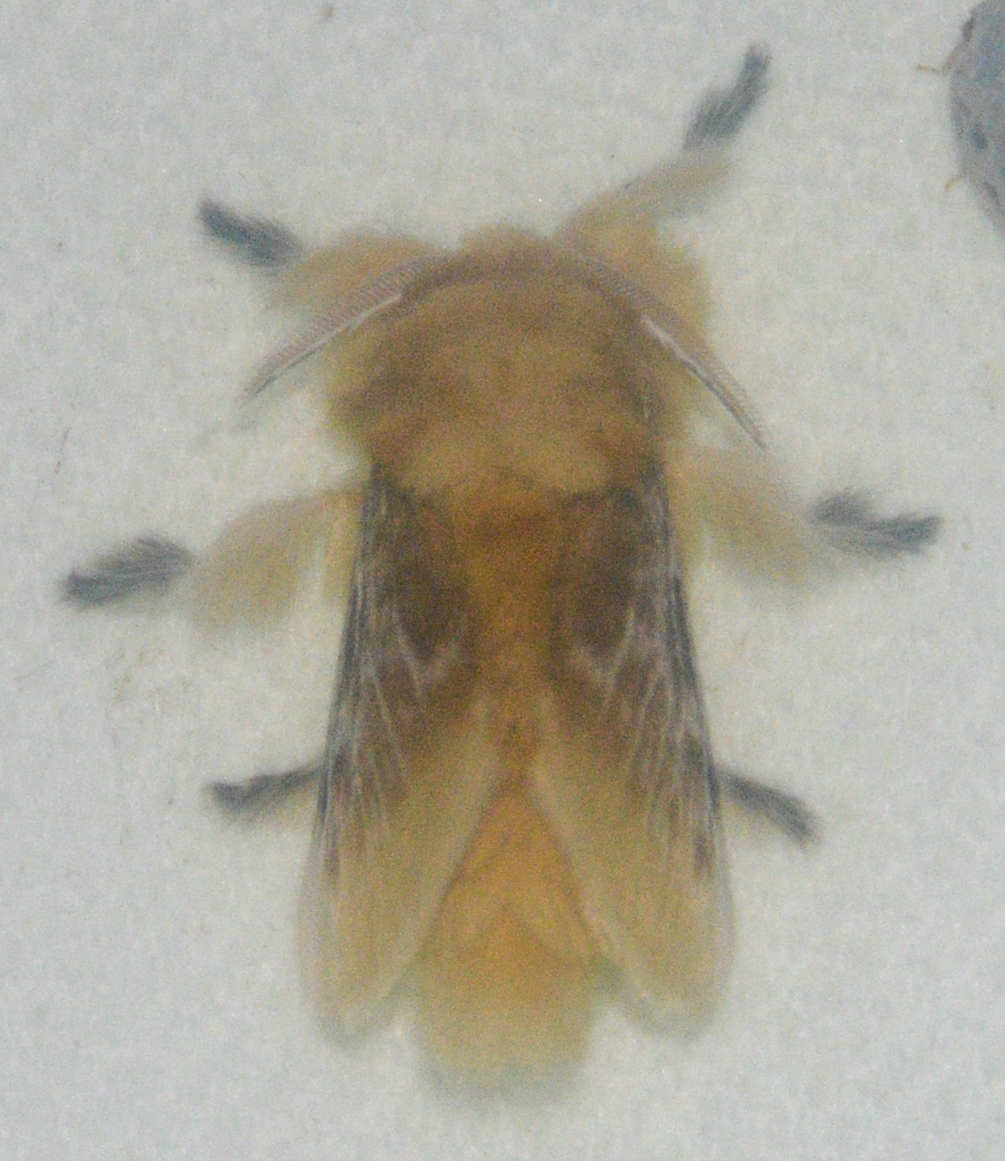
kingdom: Animalia
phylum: Arthropoda
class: Insecta
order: Lepidoptera
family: Megalopygidae
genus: Megalopyge
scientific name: Megalopyge opercularis
